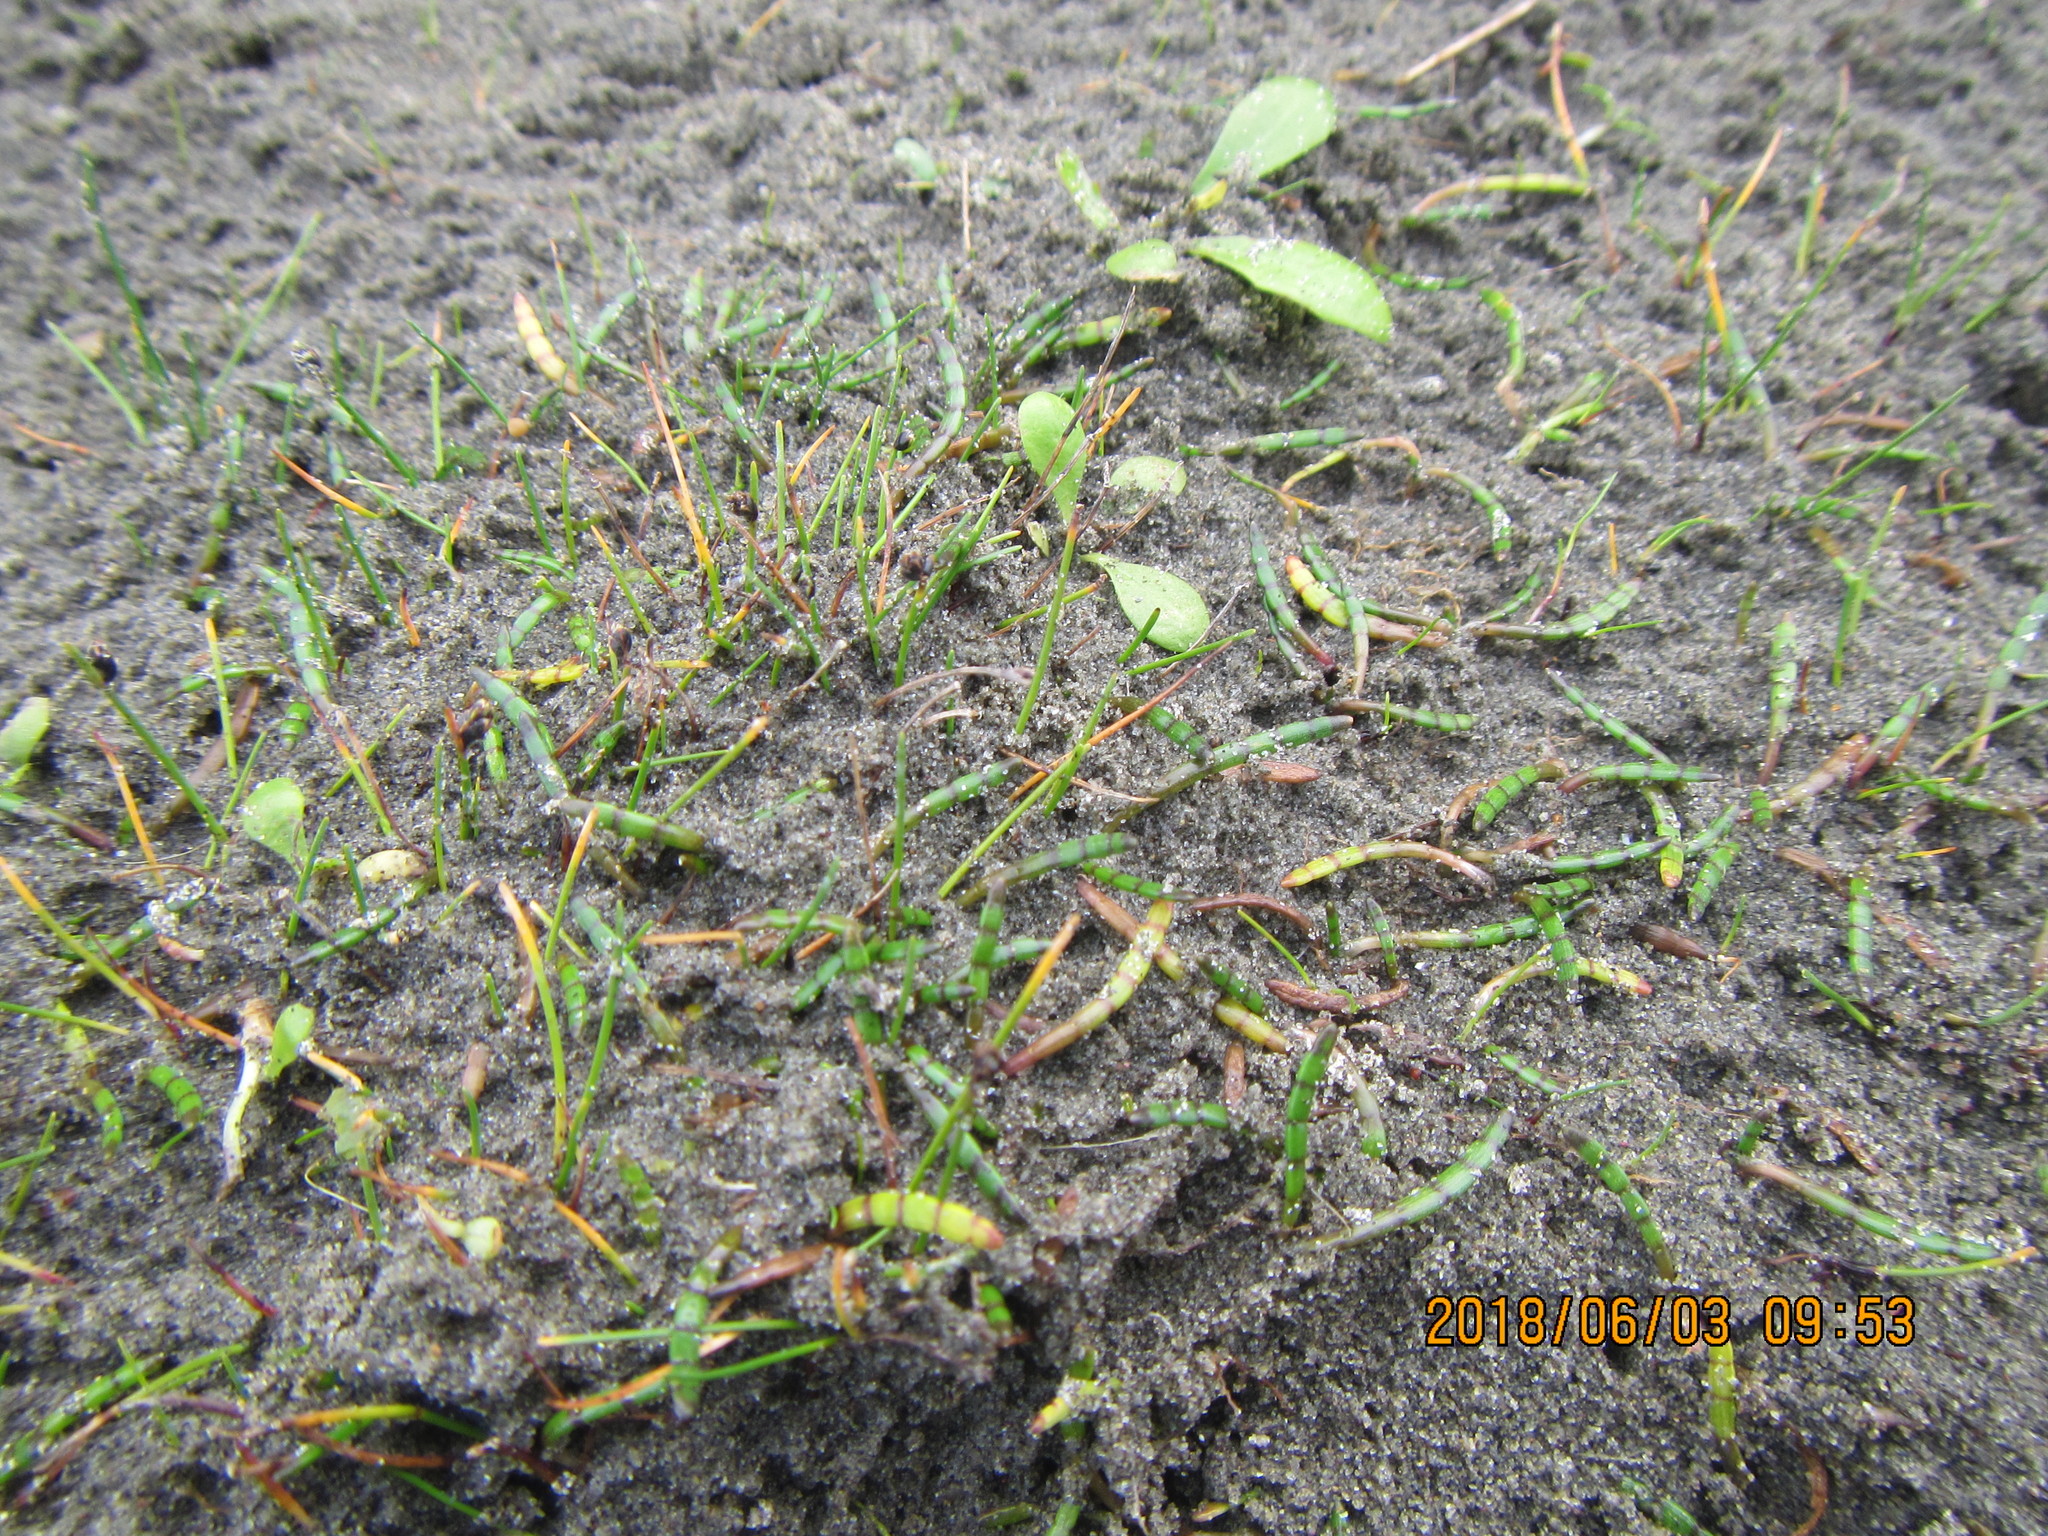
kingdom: Plantae
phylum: Tracheophyta
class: Magnoliopsida
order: Apiales
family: Apiaceae
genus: Lilaeopsis
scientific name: Lilaeopsis novae-zelandiae
